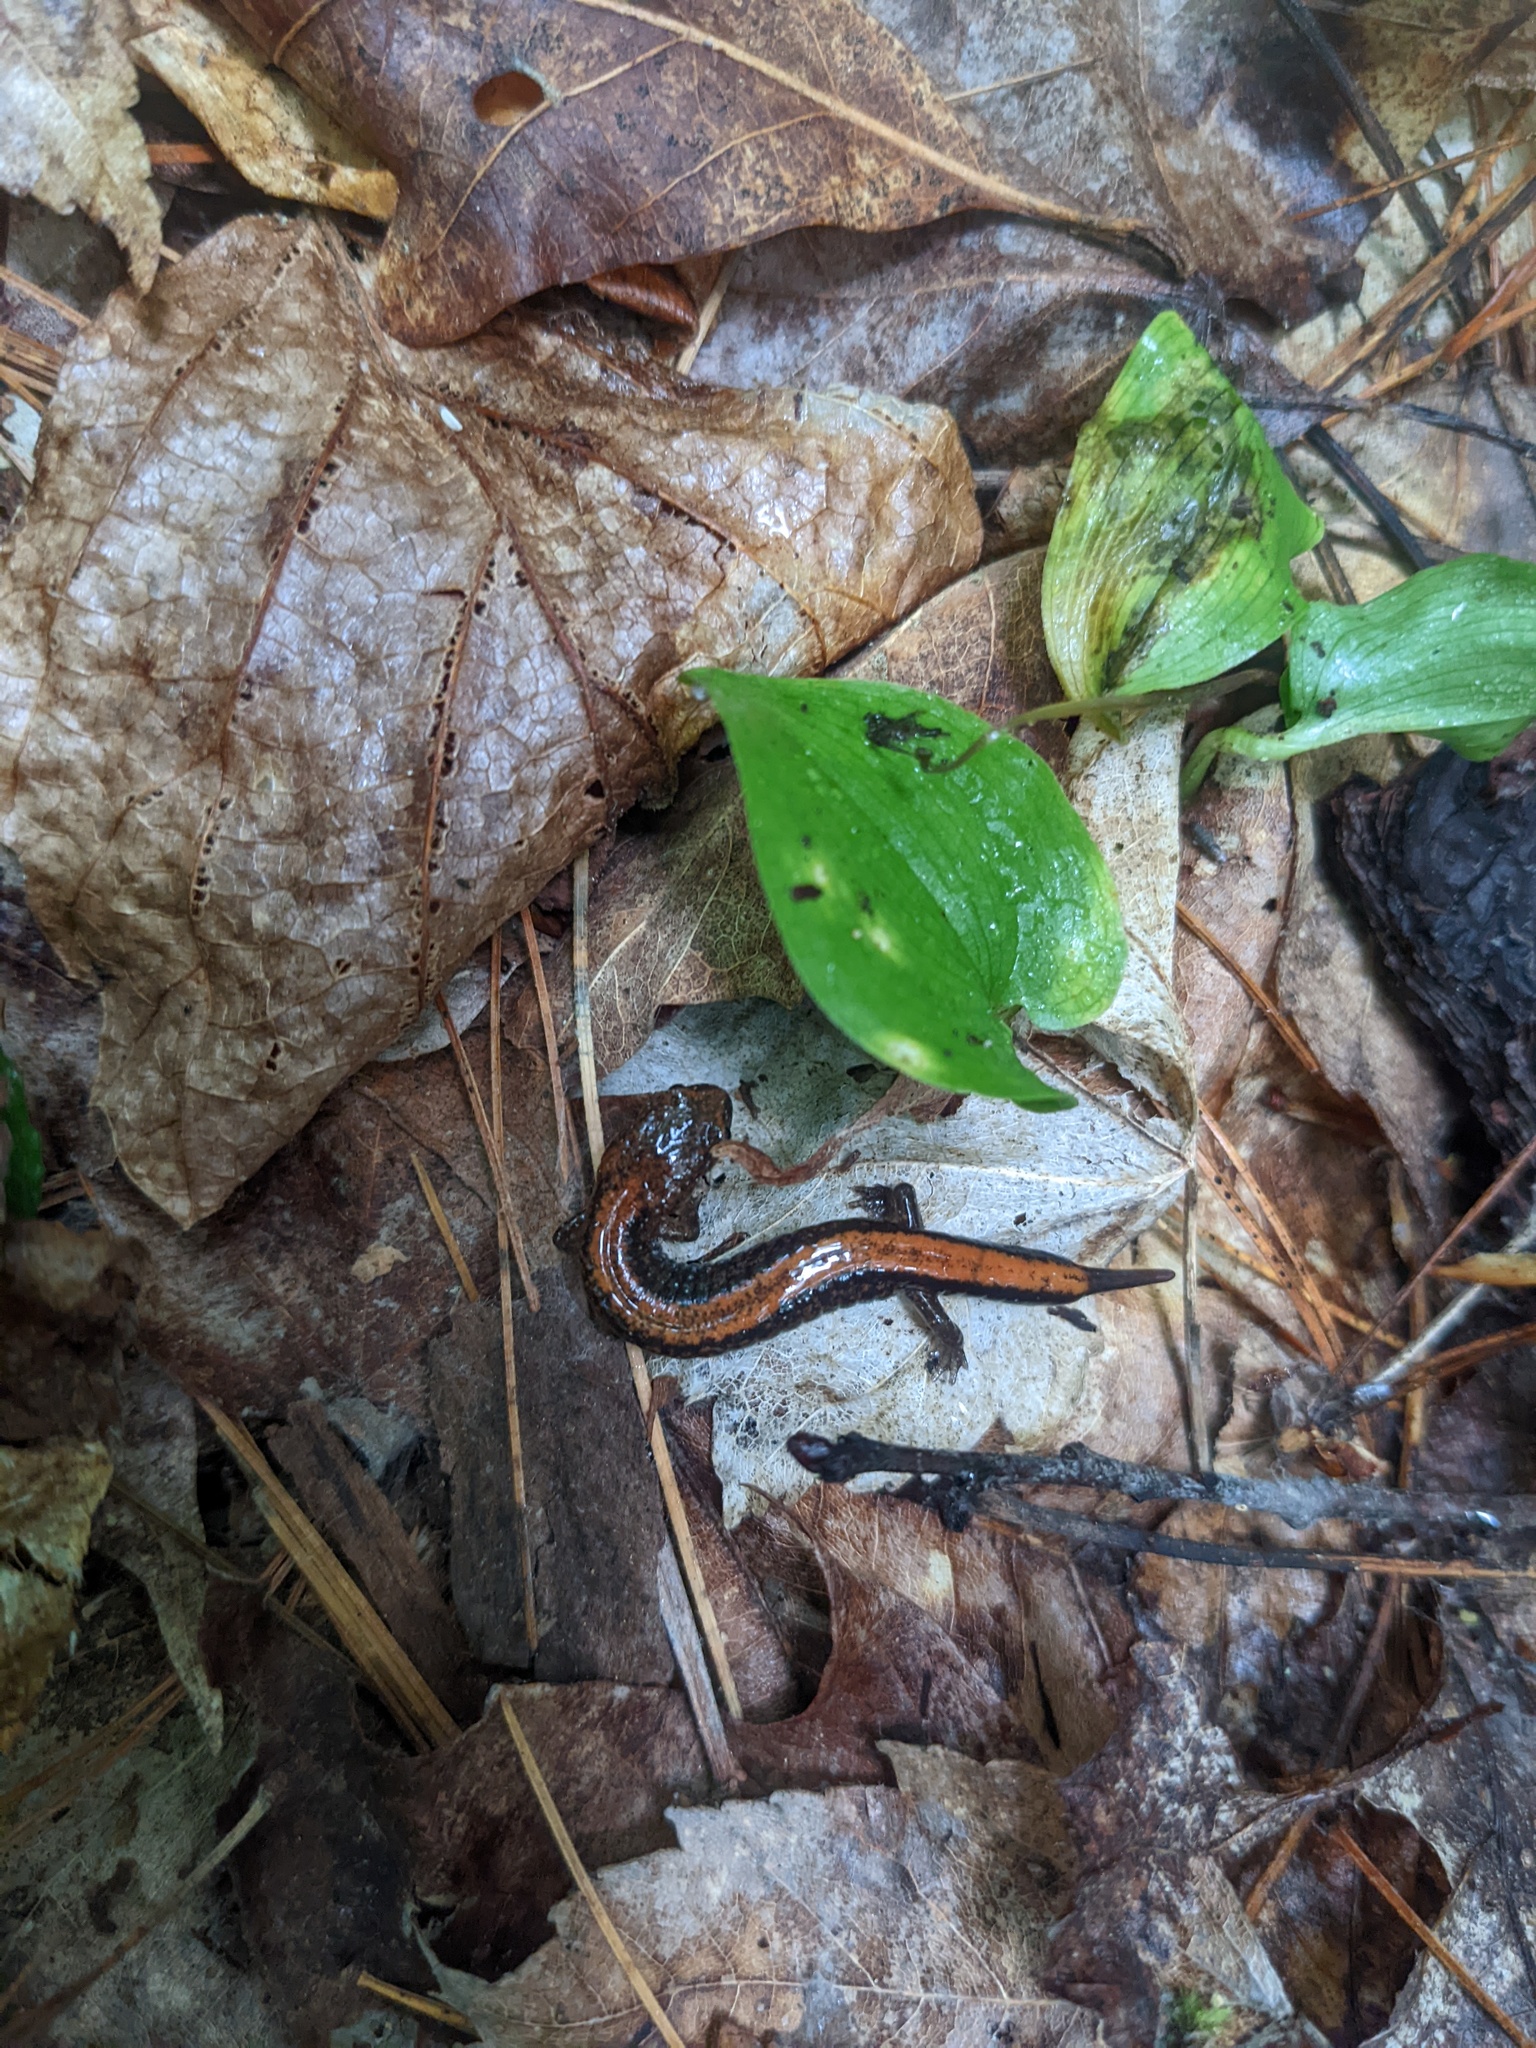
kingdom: Animalia
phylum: Chordata
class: Amphibia
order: Caudata
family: Plethodontidae
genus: Plethodon
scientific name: Plethodon cinereus
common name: Redback salamander
